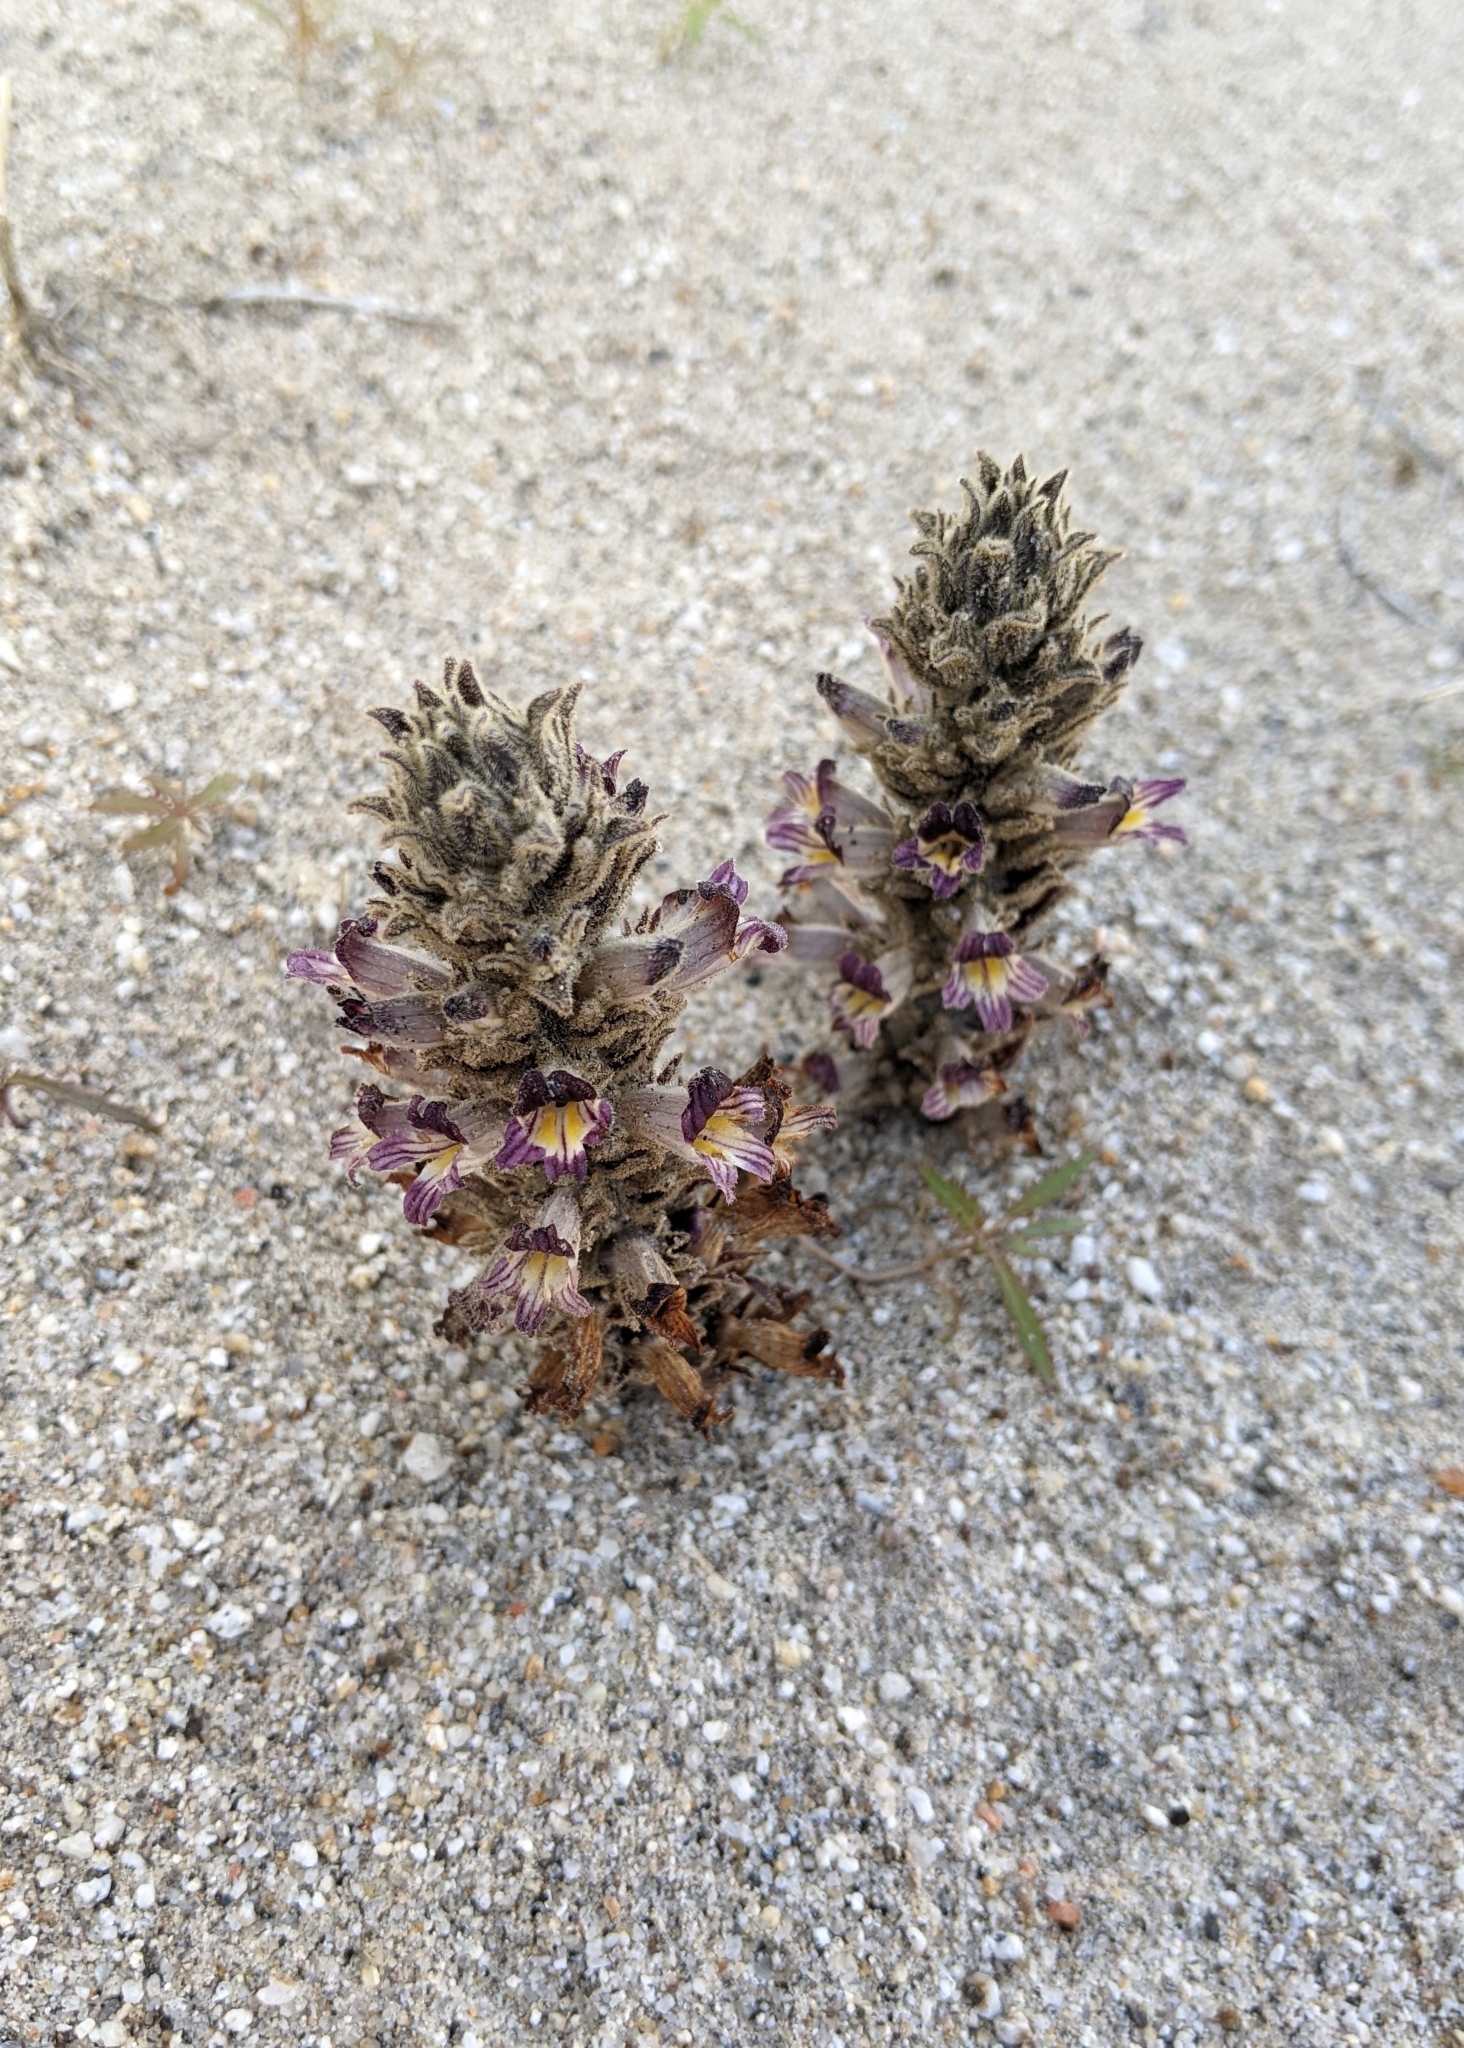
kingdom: Plantae
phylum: Tracheophyta
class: Magnoliopsida
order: Lamiales
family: Orobanchaceae
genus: Aphyllon
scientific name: Aphyllon cooperi
